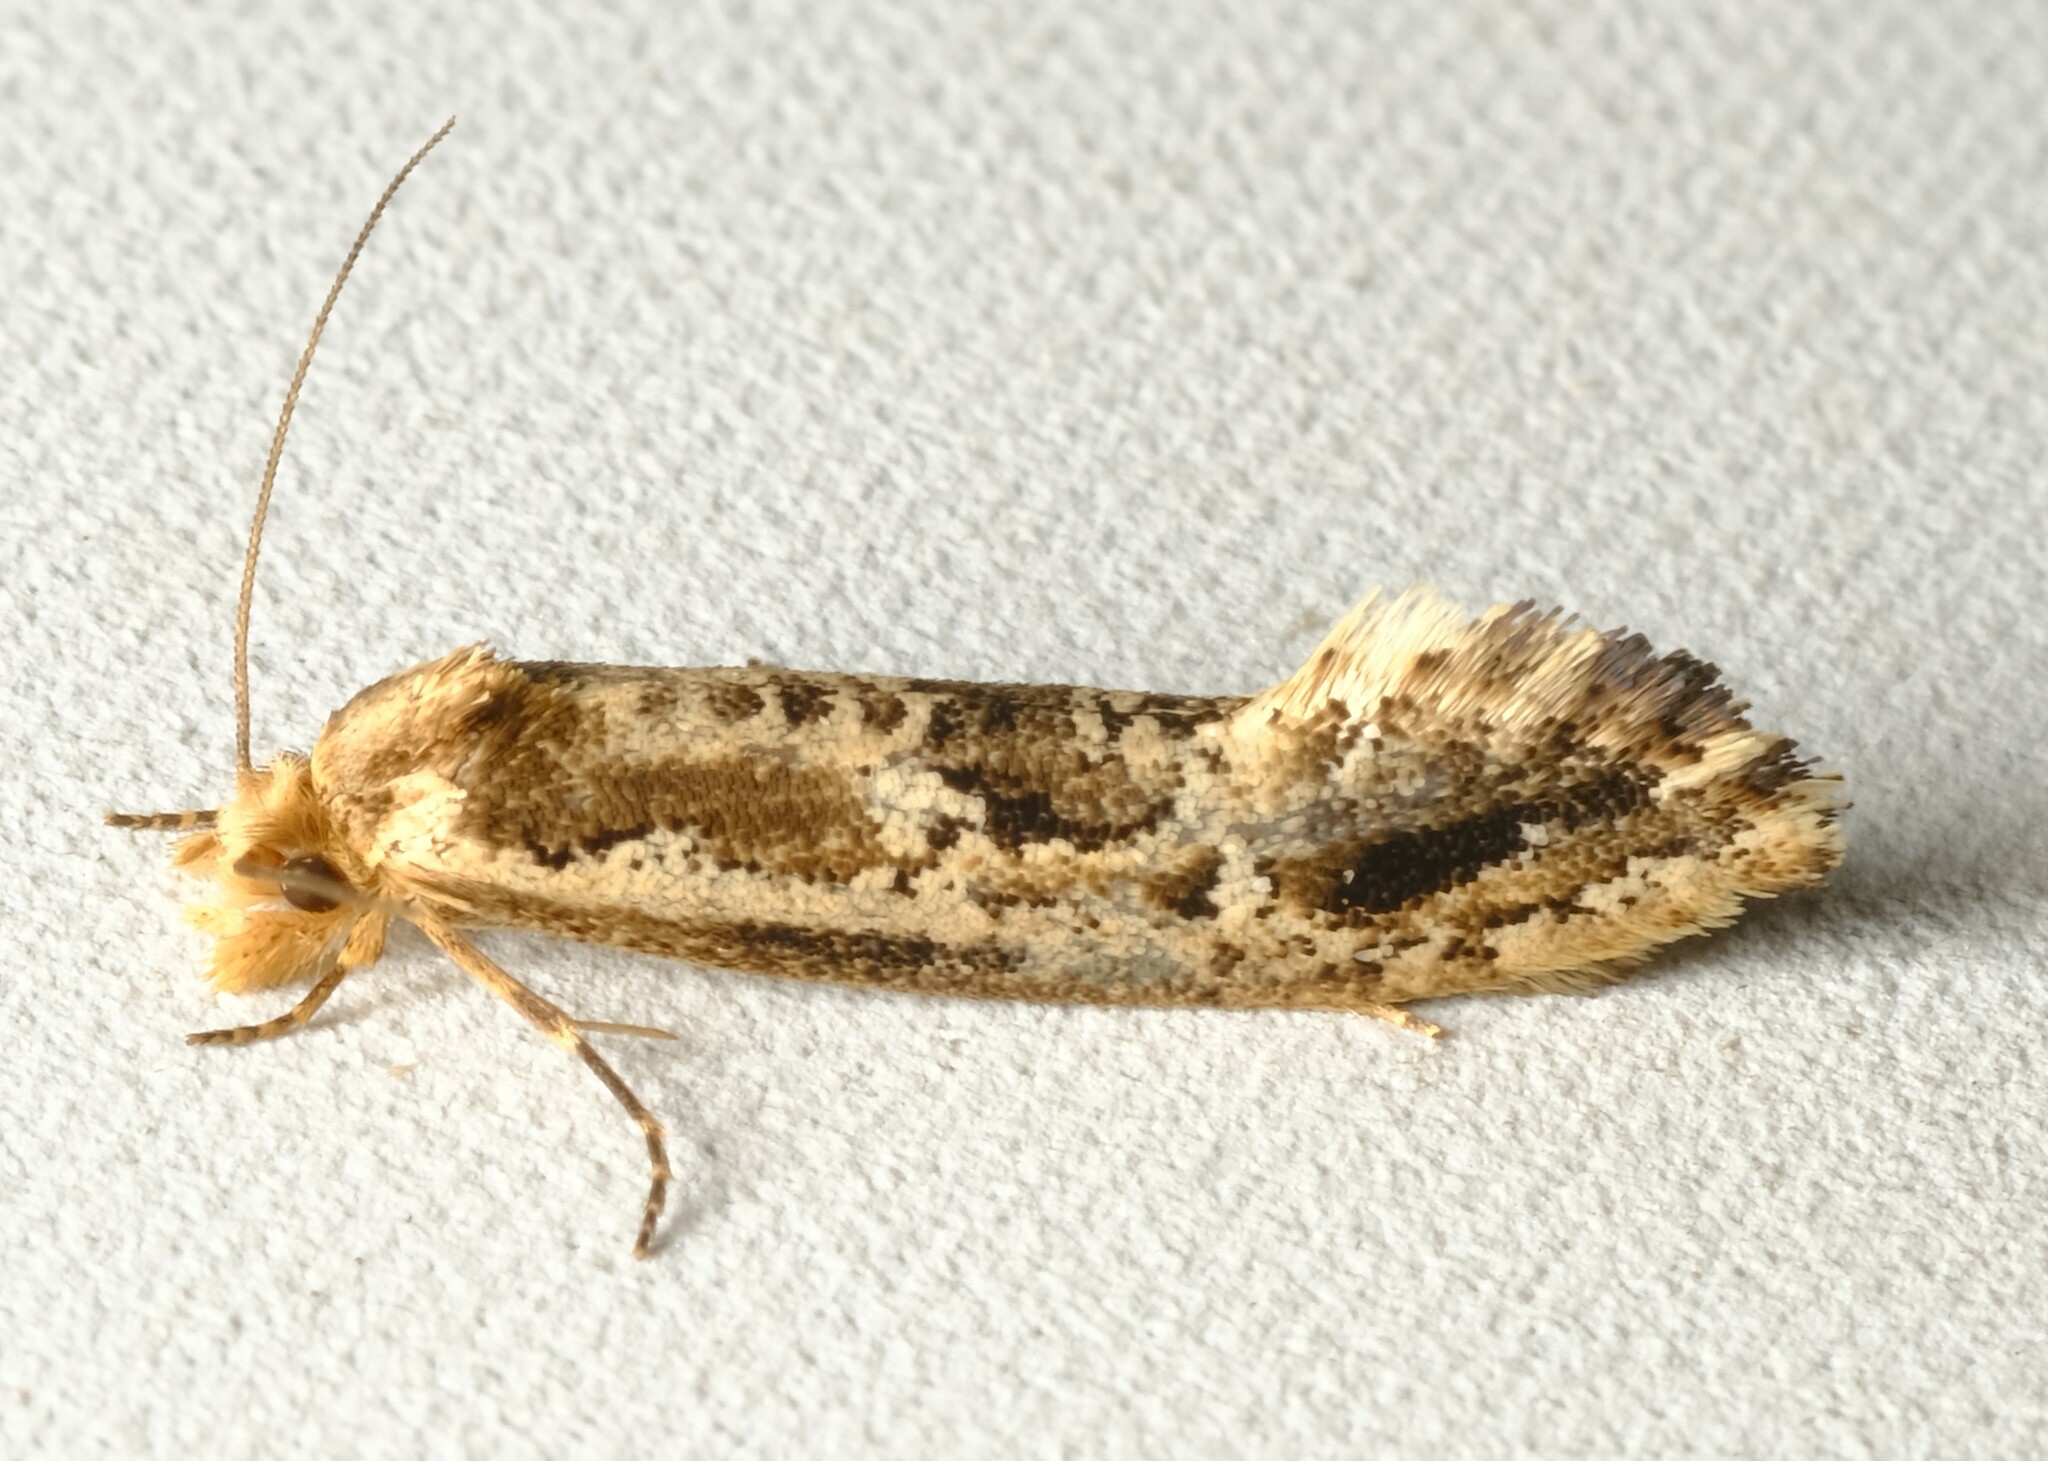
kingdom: Animalia
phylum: Arthropoda
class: Insecta
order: Lepidoptera
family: Tineidae
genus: Moerarchis
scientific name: Moerarchis inconcisella
